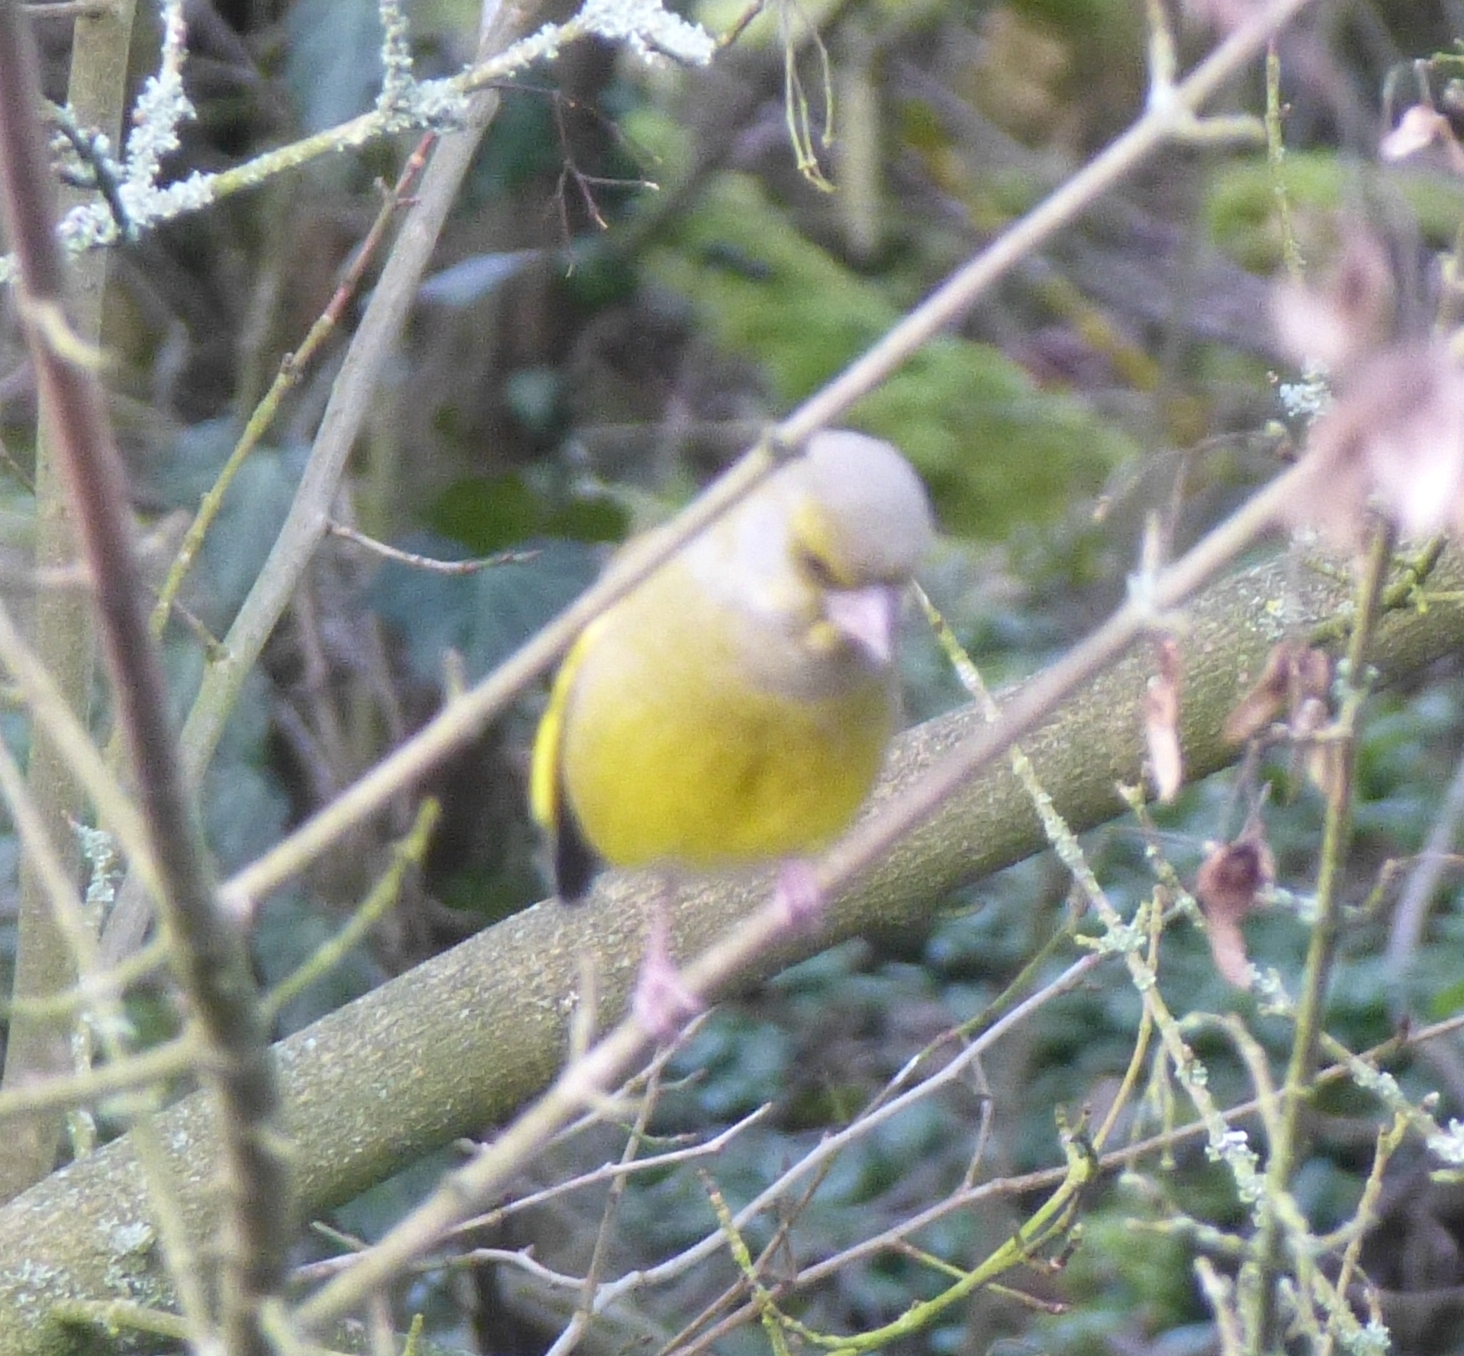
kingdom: Plantae
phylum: Tracheophyta
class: Liliopsida
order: Poales
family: Poaceae
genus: Chloris
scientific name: Chloris chloris
